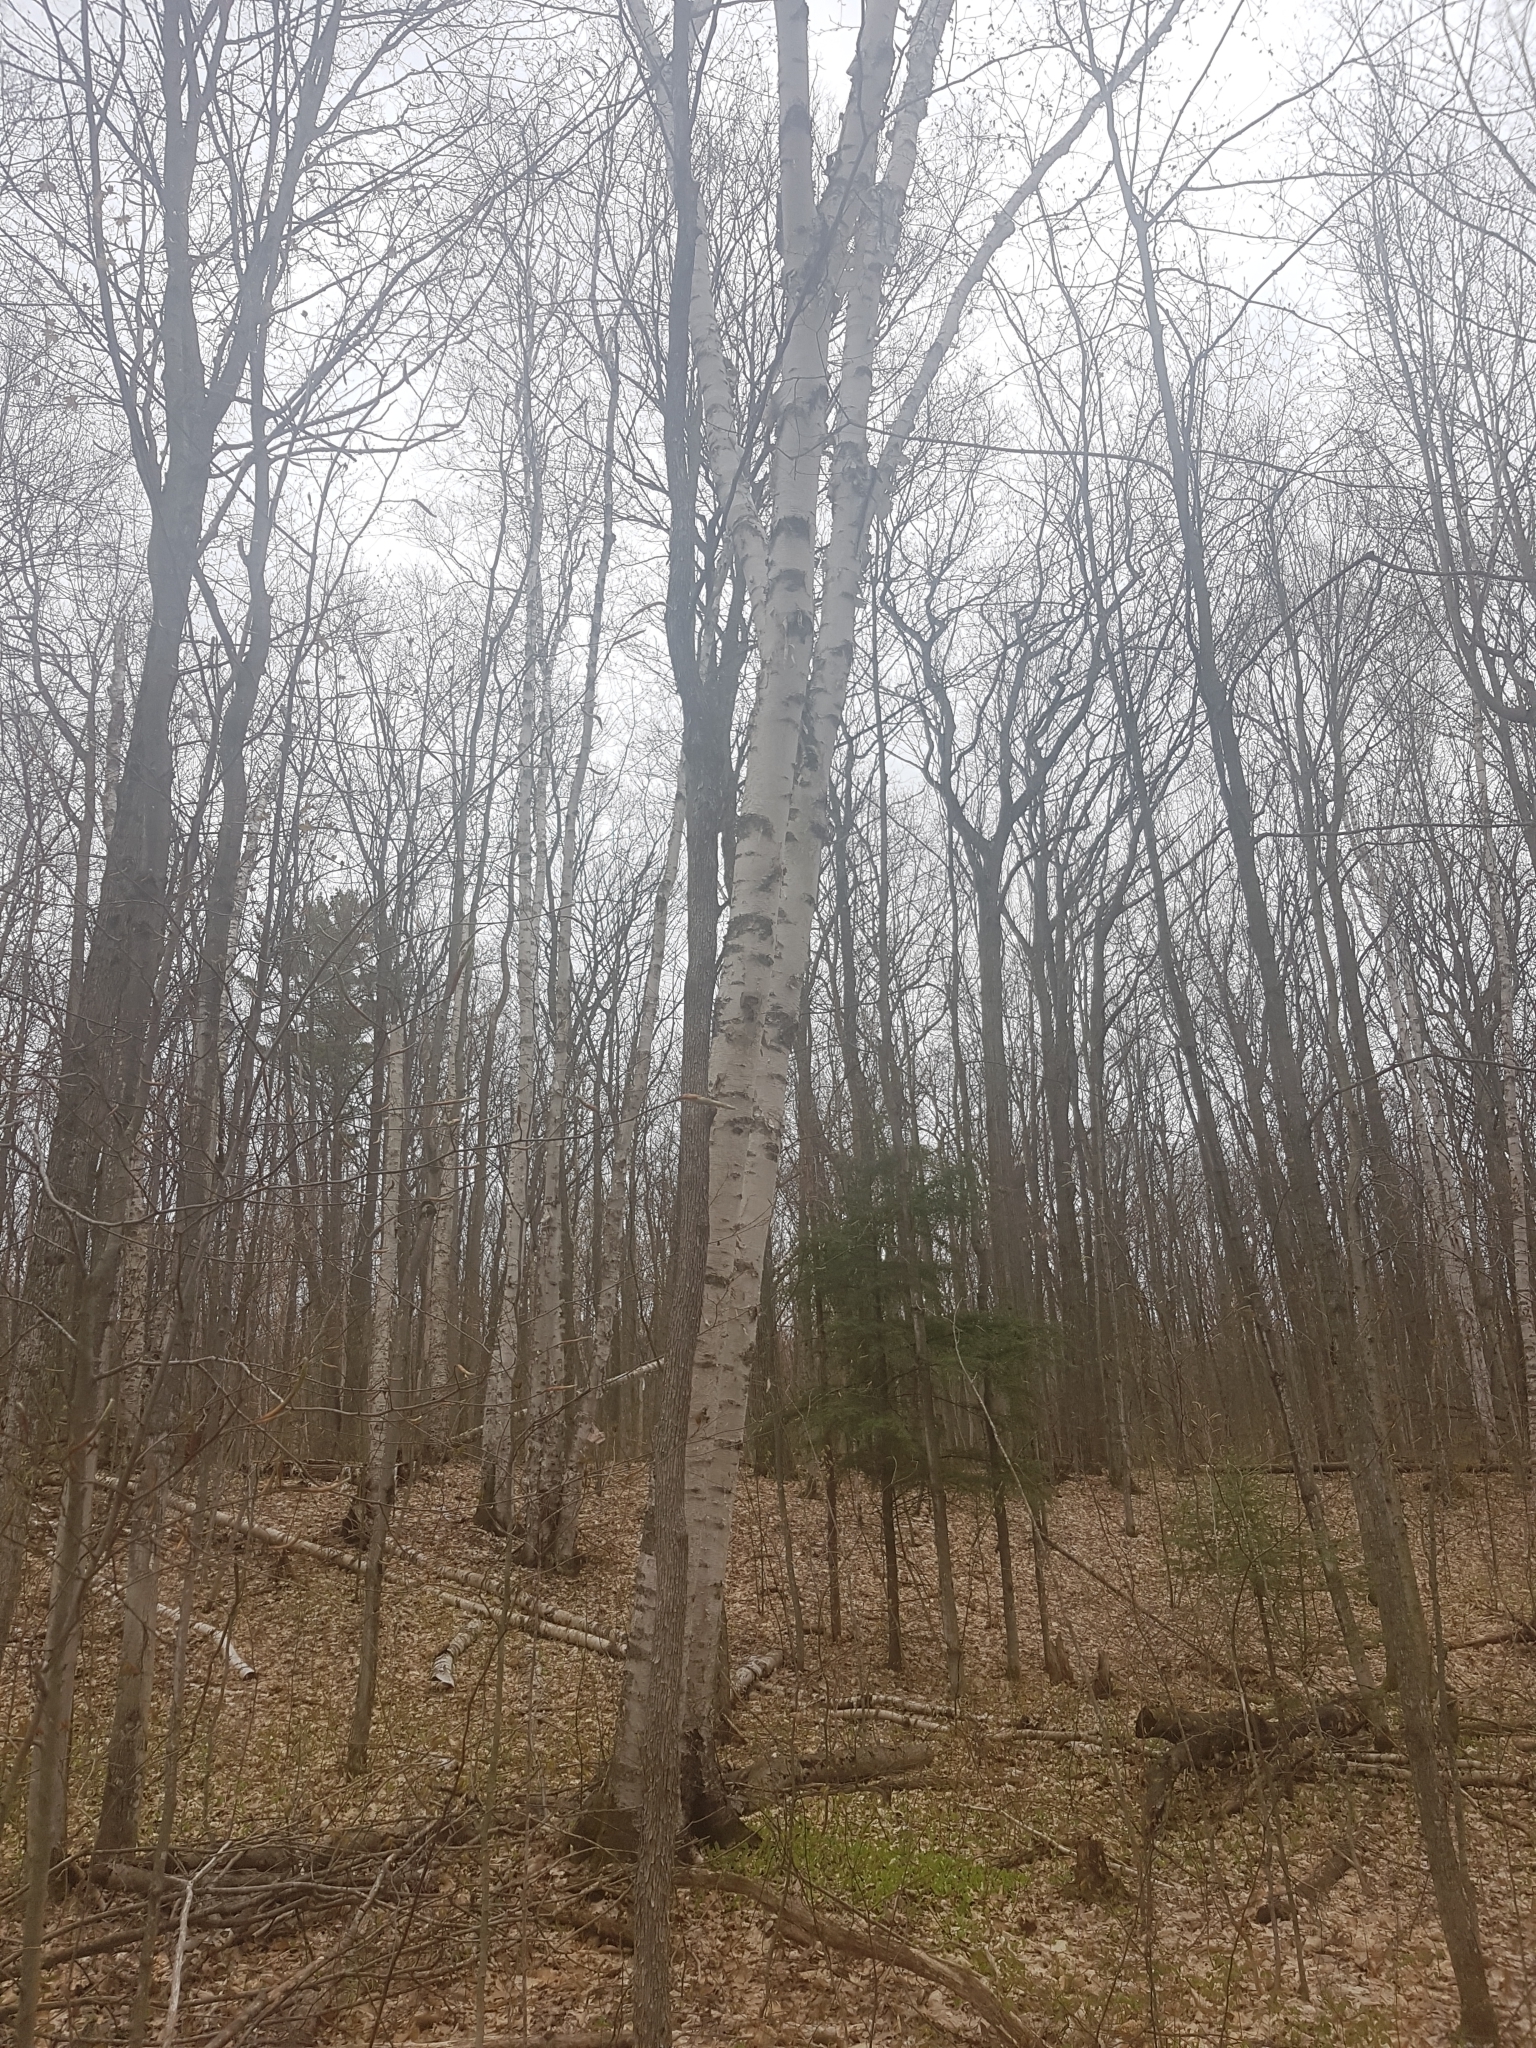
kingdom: Plantae
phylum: Tracheophyta
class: Magnoliopsida
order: Fagales
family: Betulaceae
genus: Betula
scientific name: Betula papyrifera
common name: Paper birch
